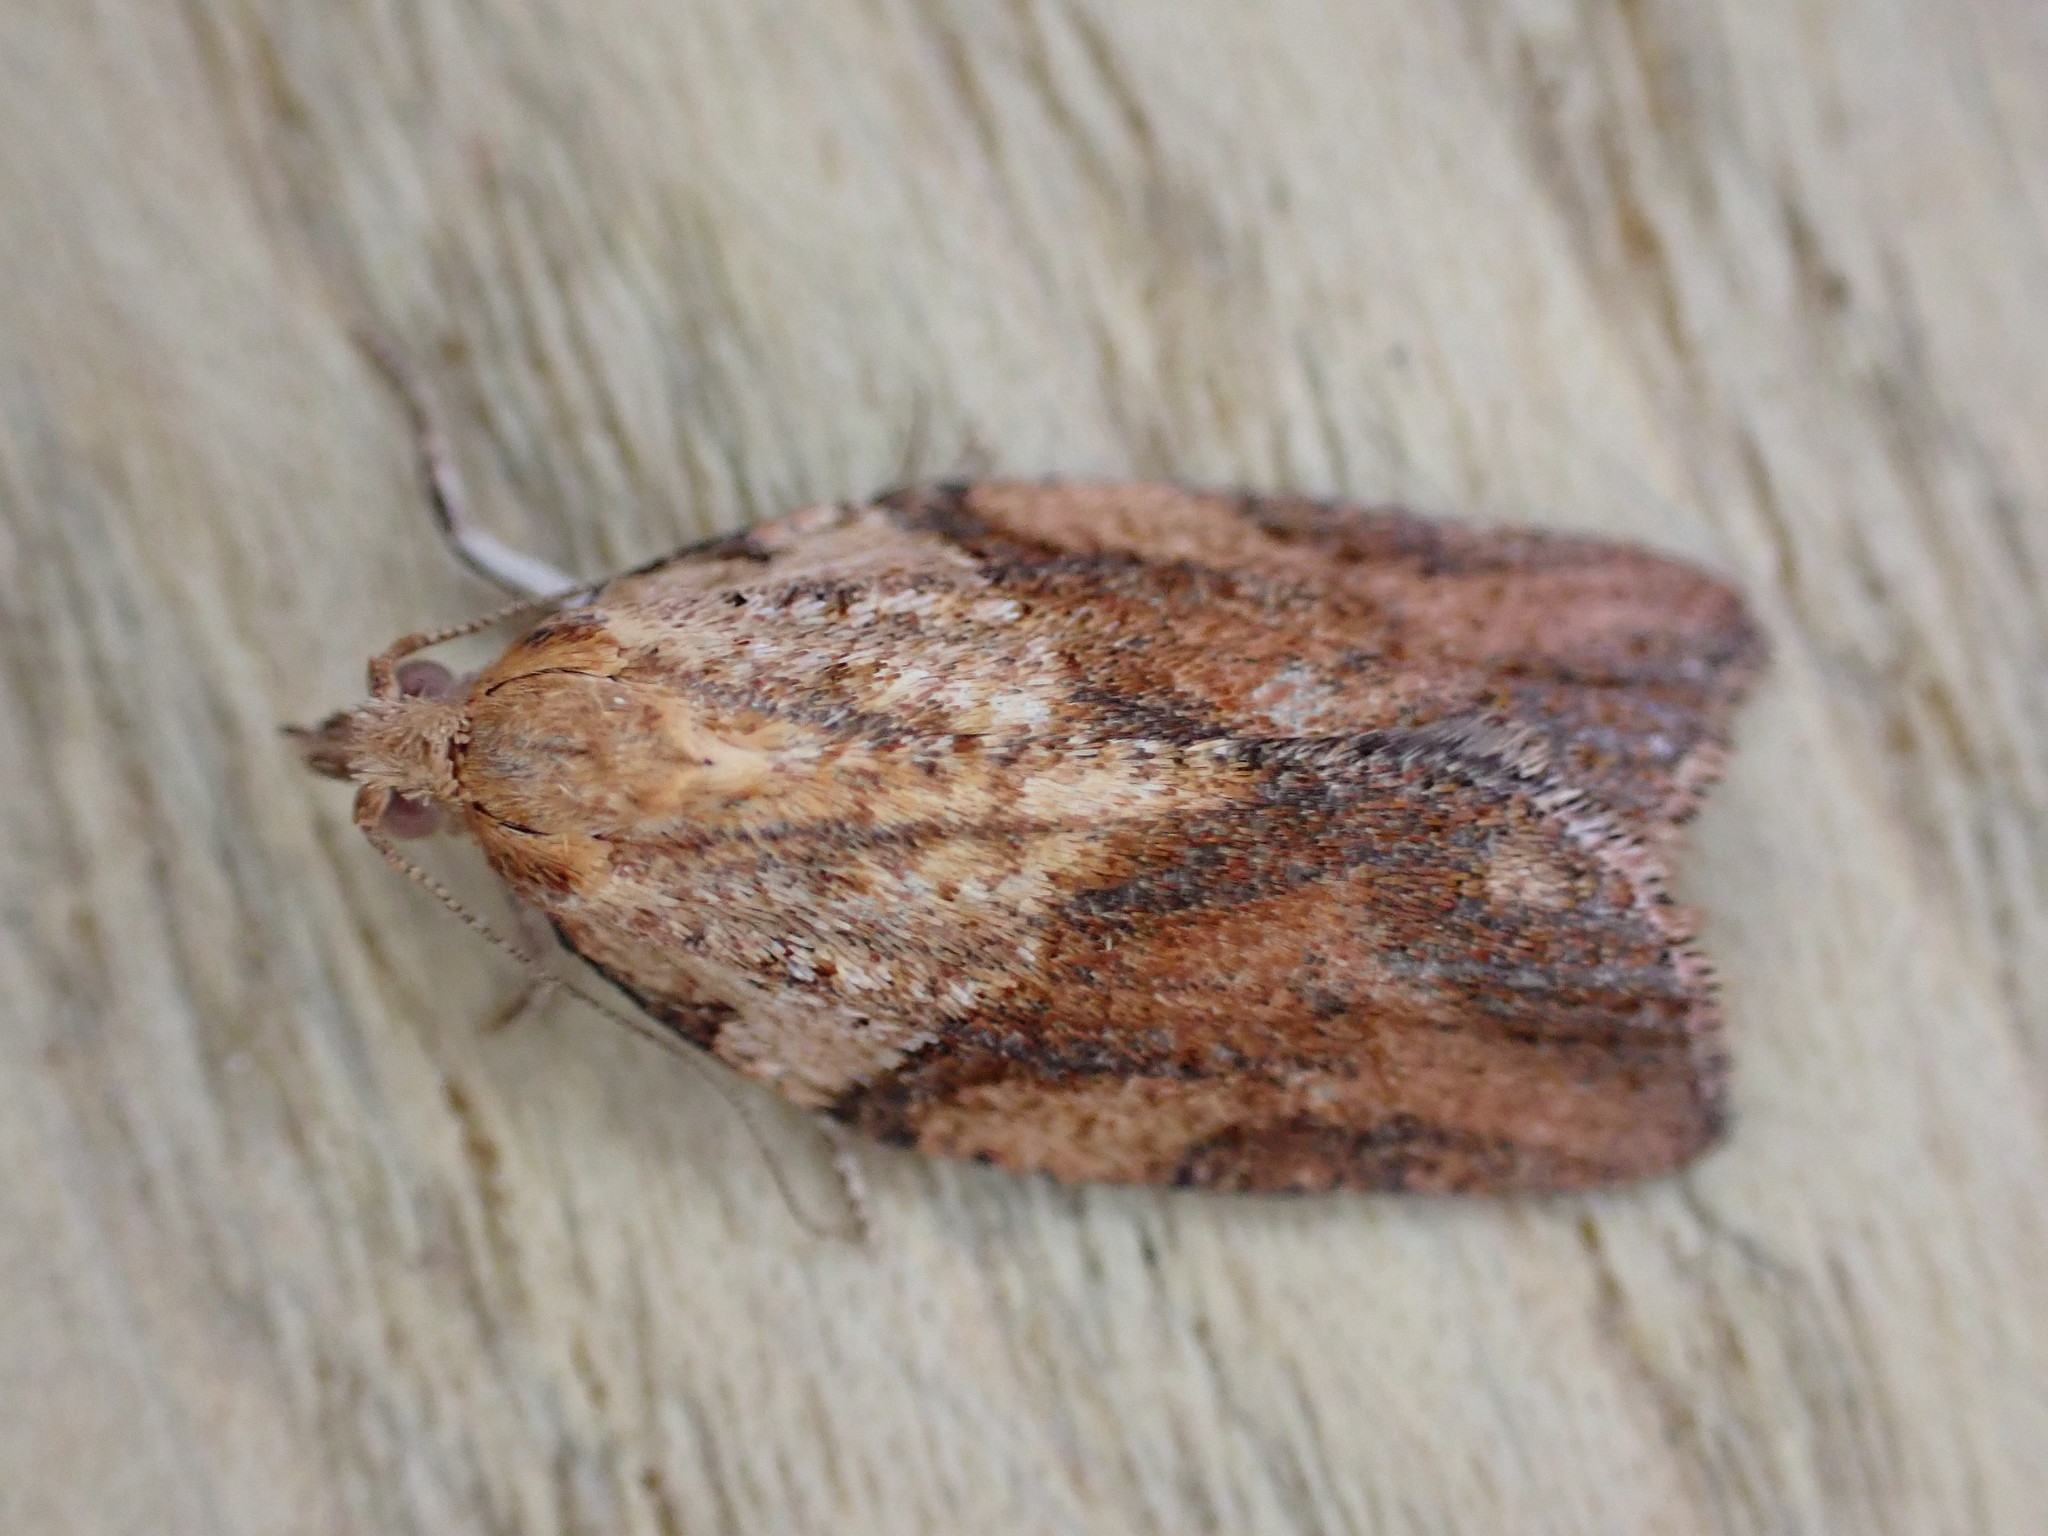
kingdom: Animalia
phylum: Arthropoda
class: Insecta
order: Lepidoptera
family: Tortricidae
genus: Epiphyas
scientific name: Epiphyas postvittana
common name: Light brown apple moth
